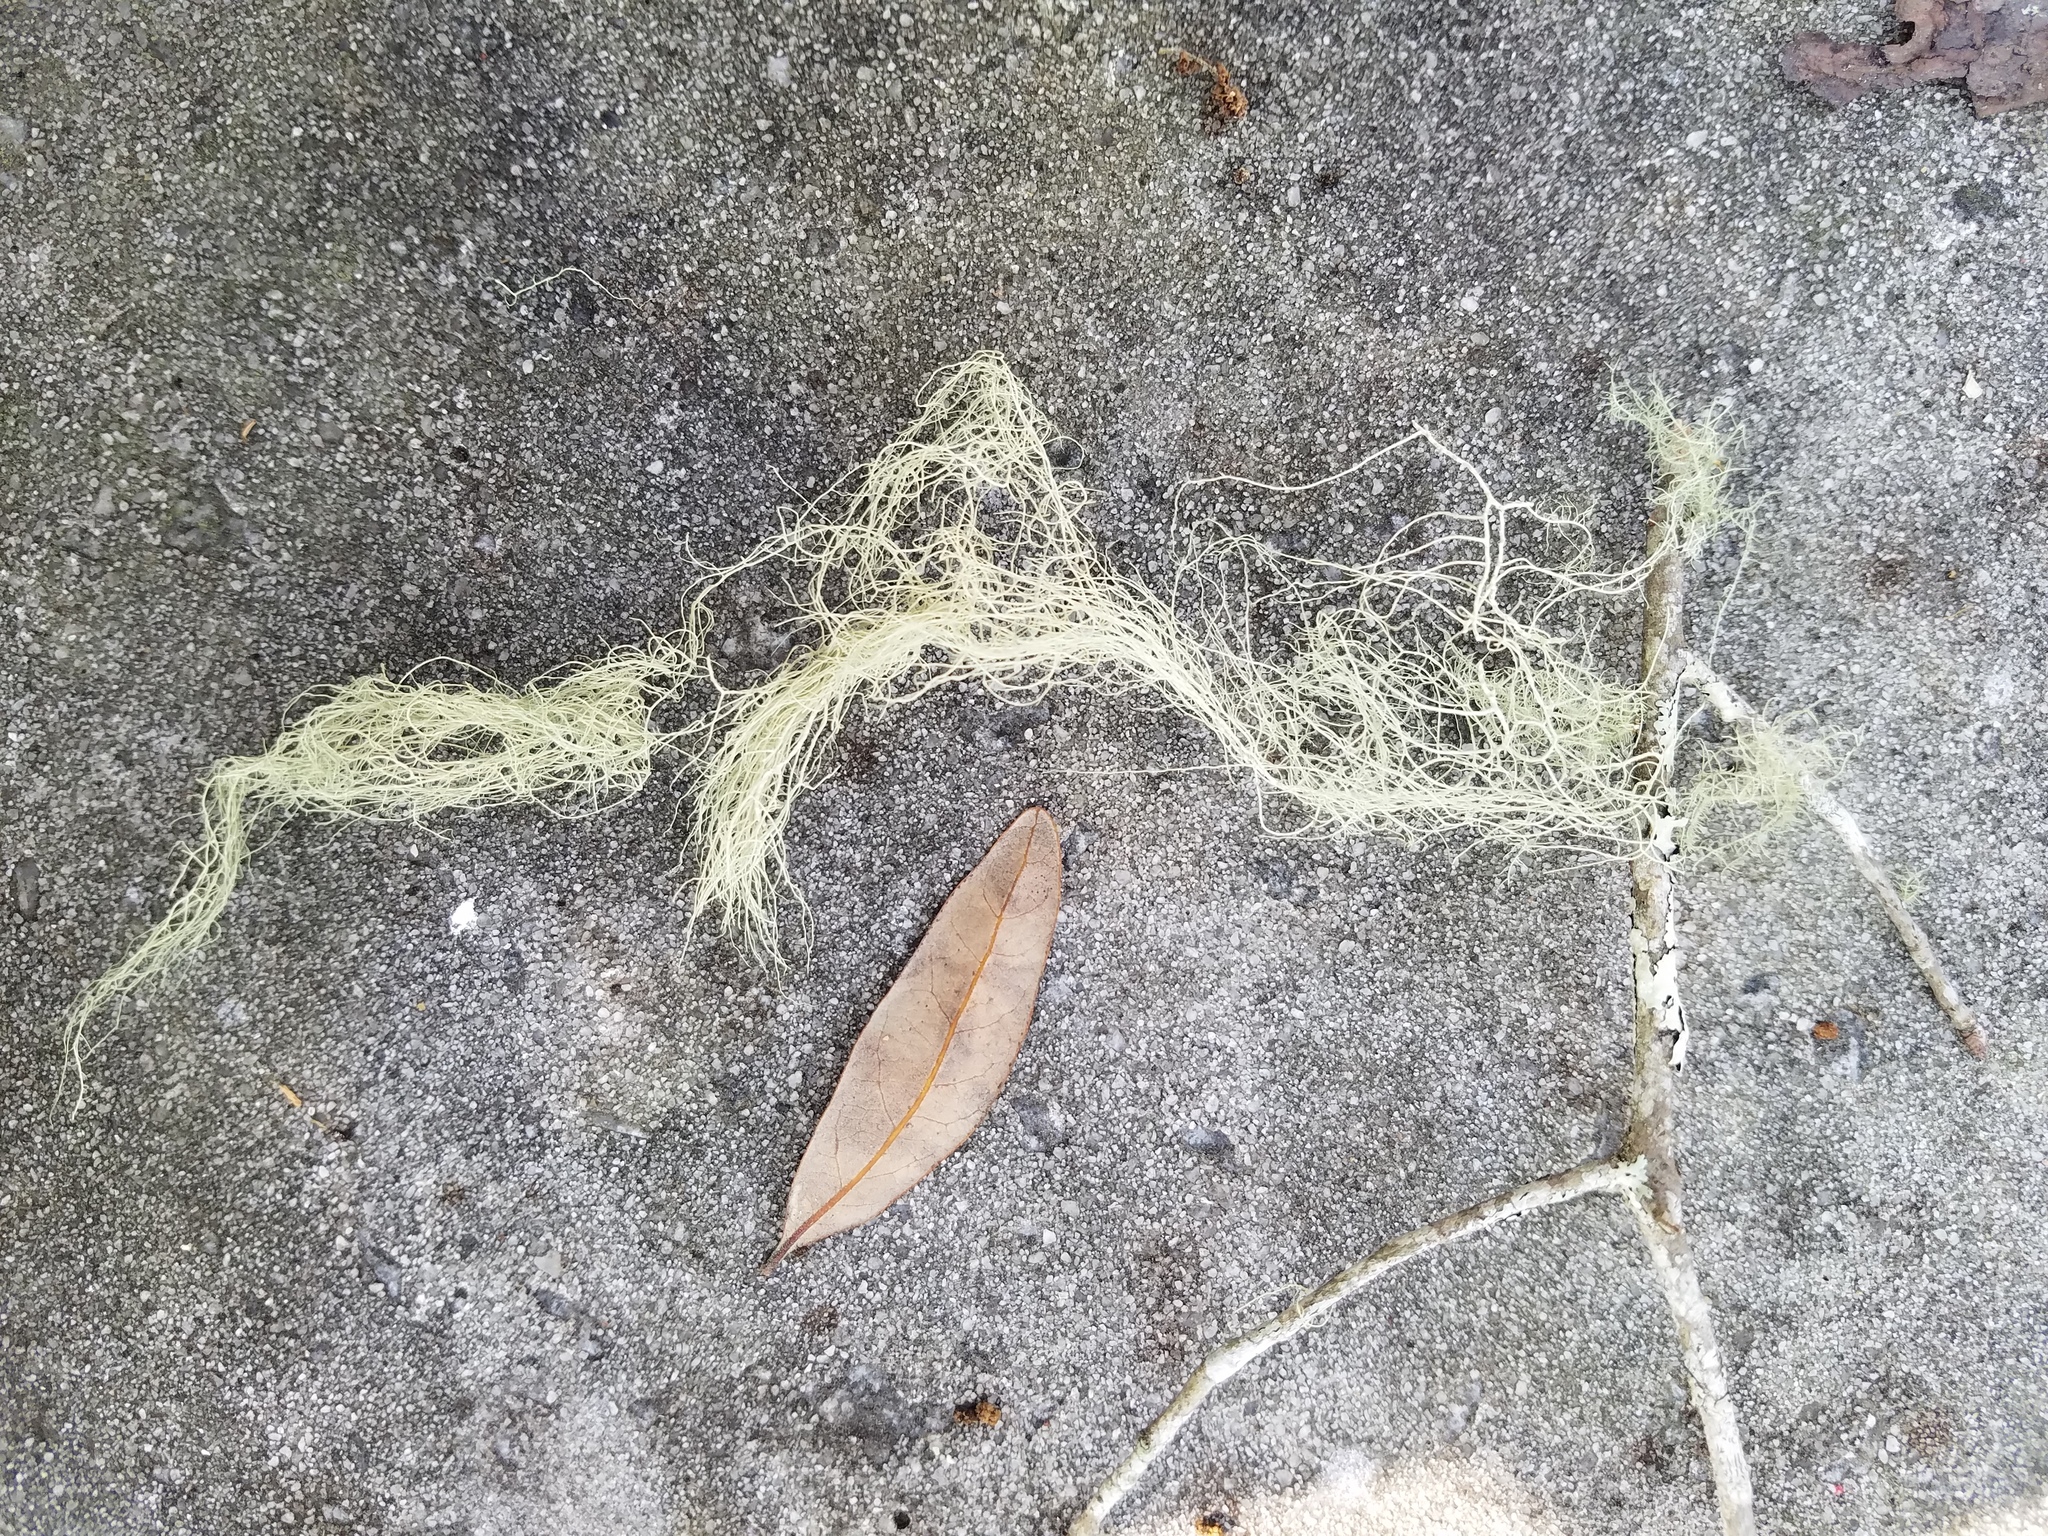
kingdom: Fungi
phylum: Ascomycota
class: Lecanoromycetes
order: Lecanorales
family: Parmeliaceae
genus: Usnea
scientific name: Usnea trichodea
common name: Bony beard lichen
